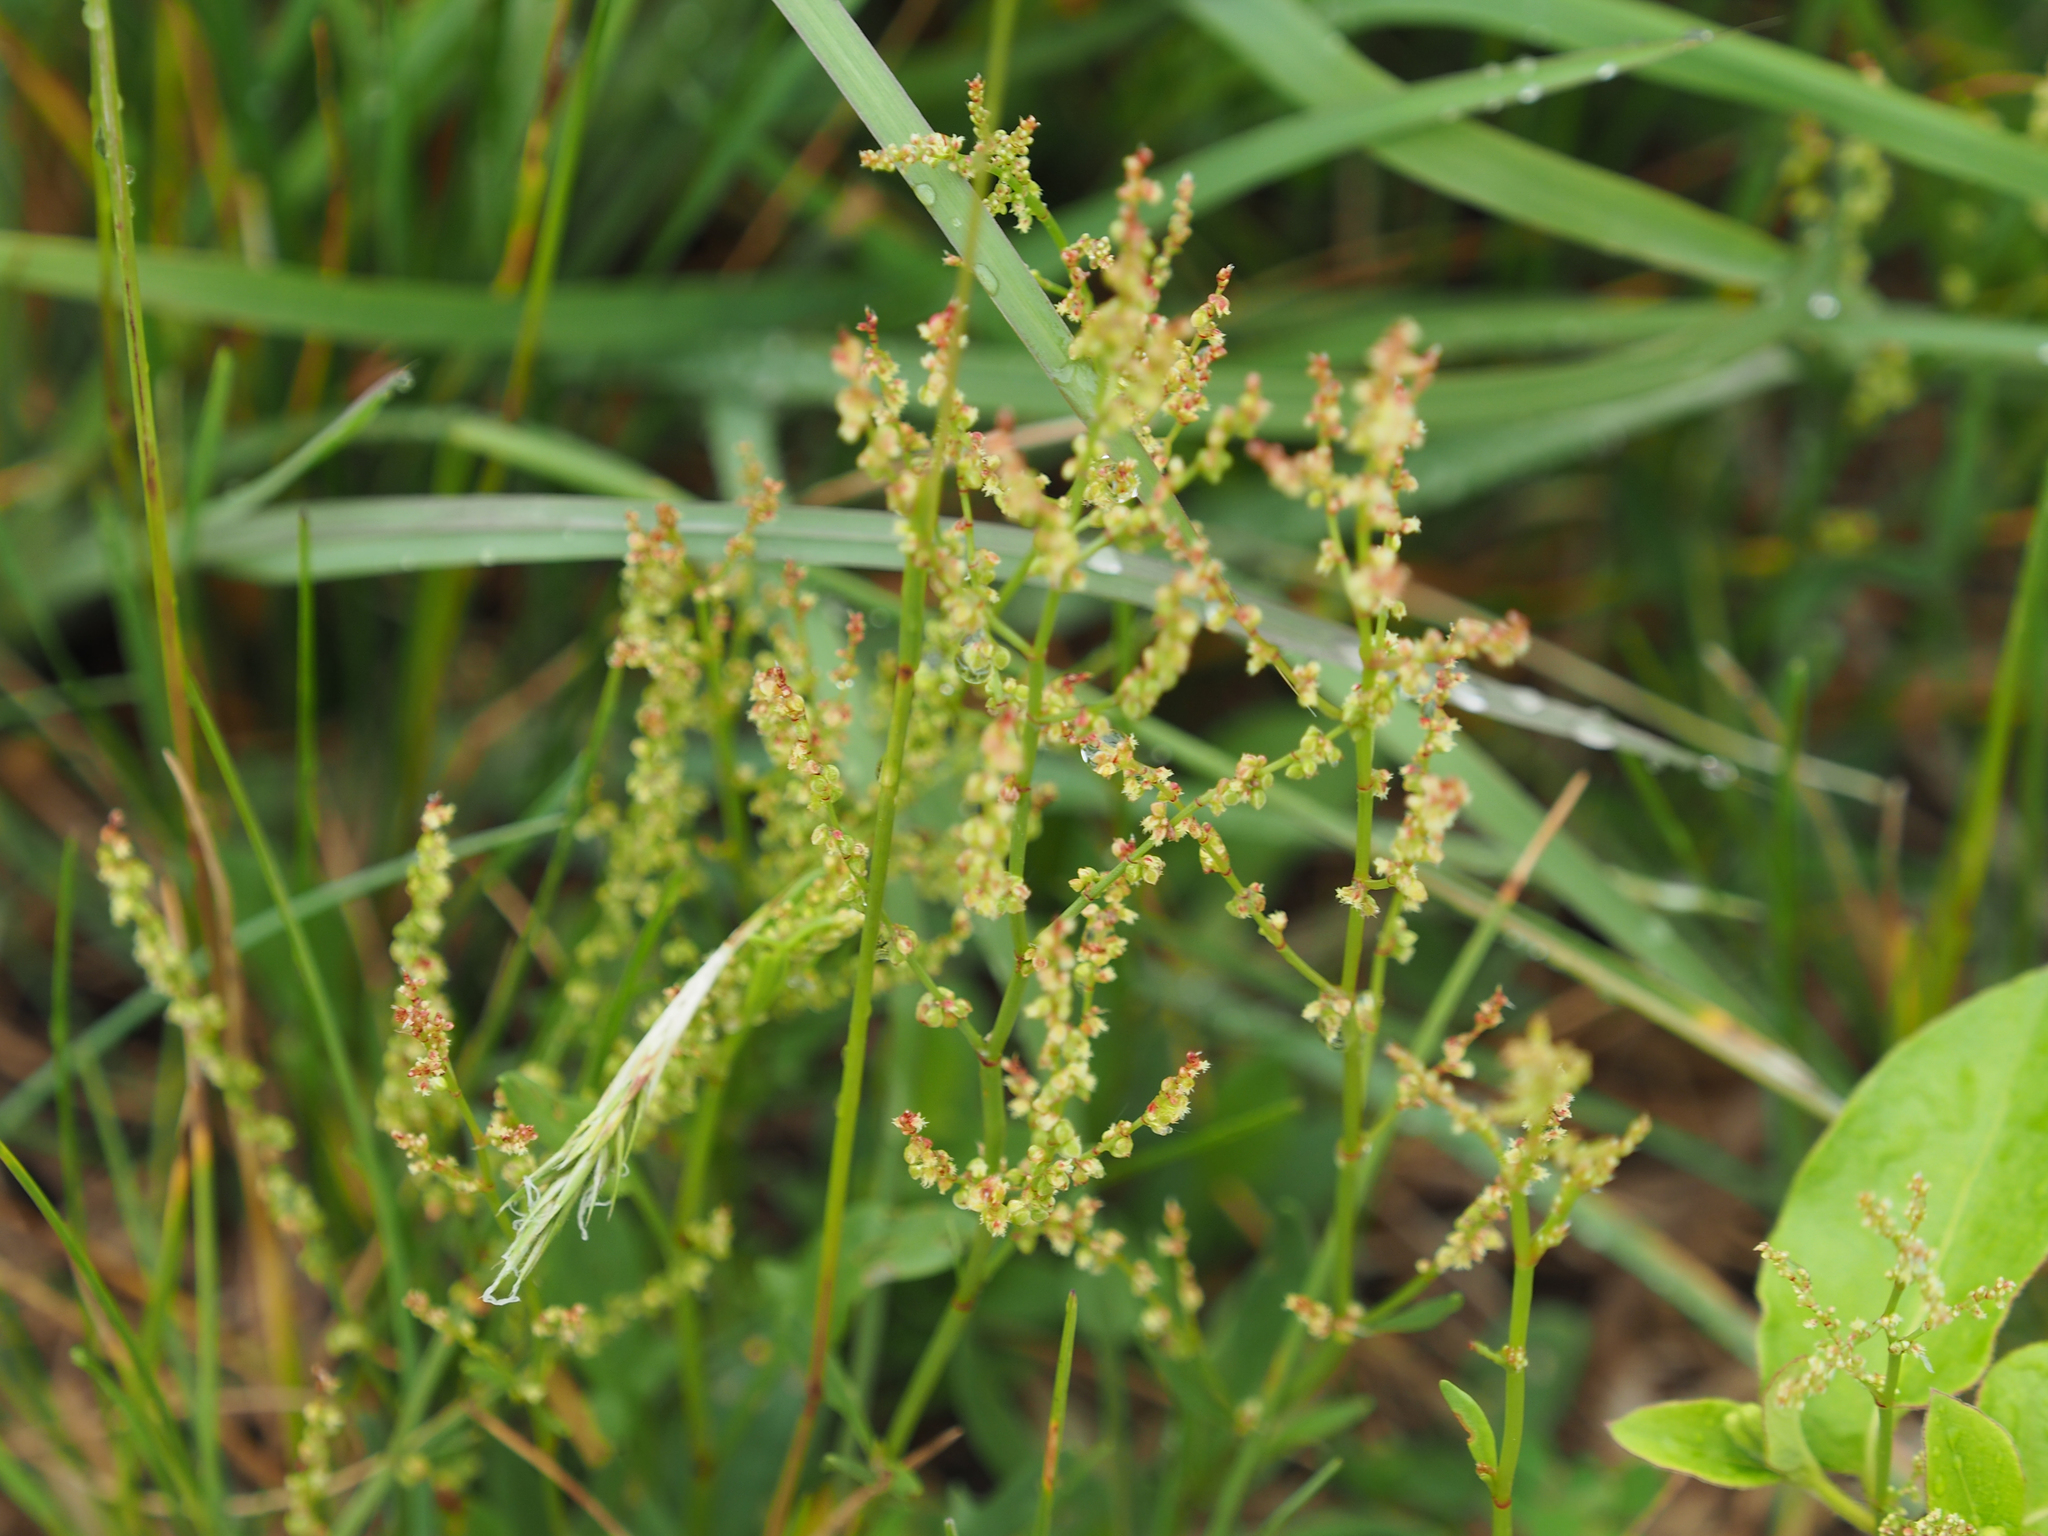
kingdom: Plantae
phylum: Tracheophyta
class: Magnoliopsida
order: Caryophyllales
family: Polygonaceae
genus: Rumex
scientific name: Rumex acetosella
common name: Common sheep sorrel
